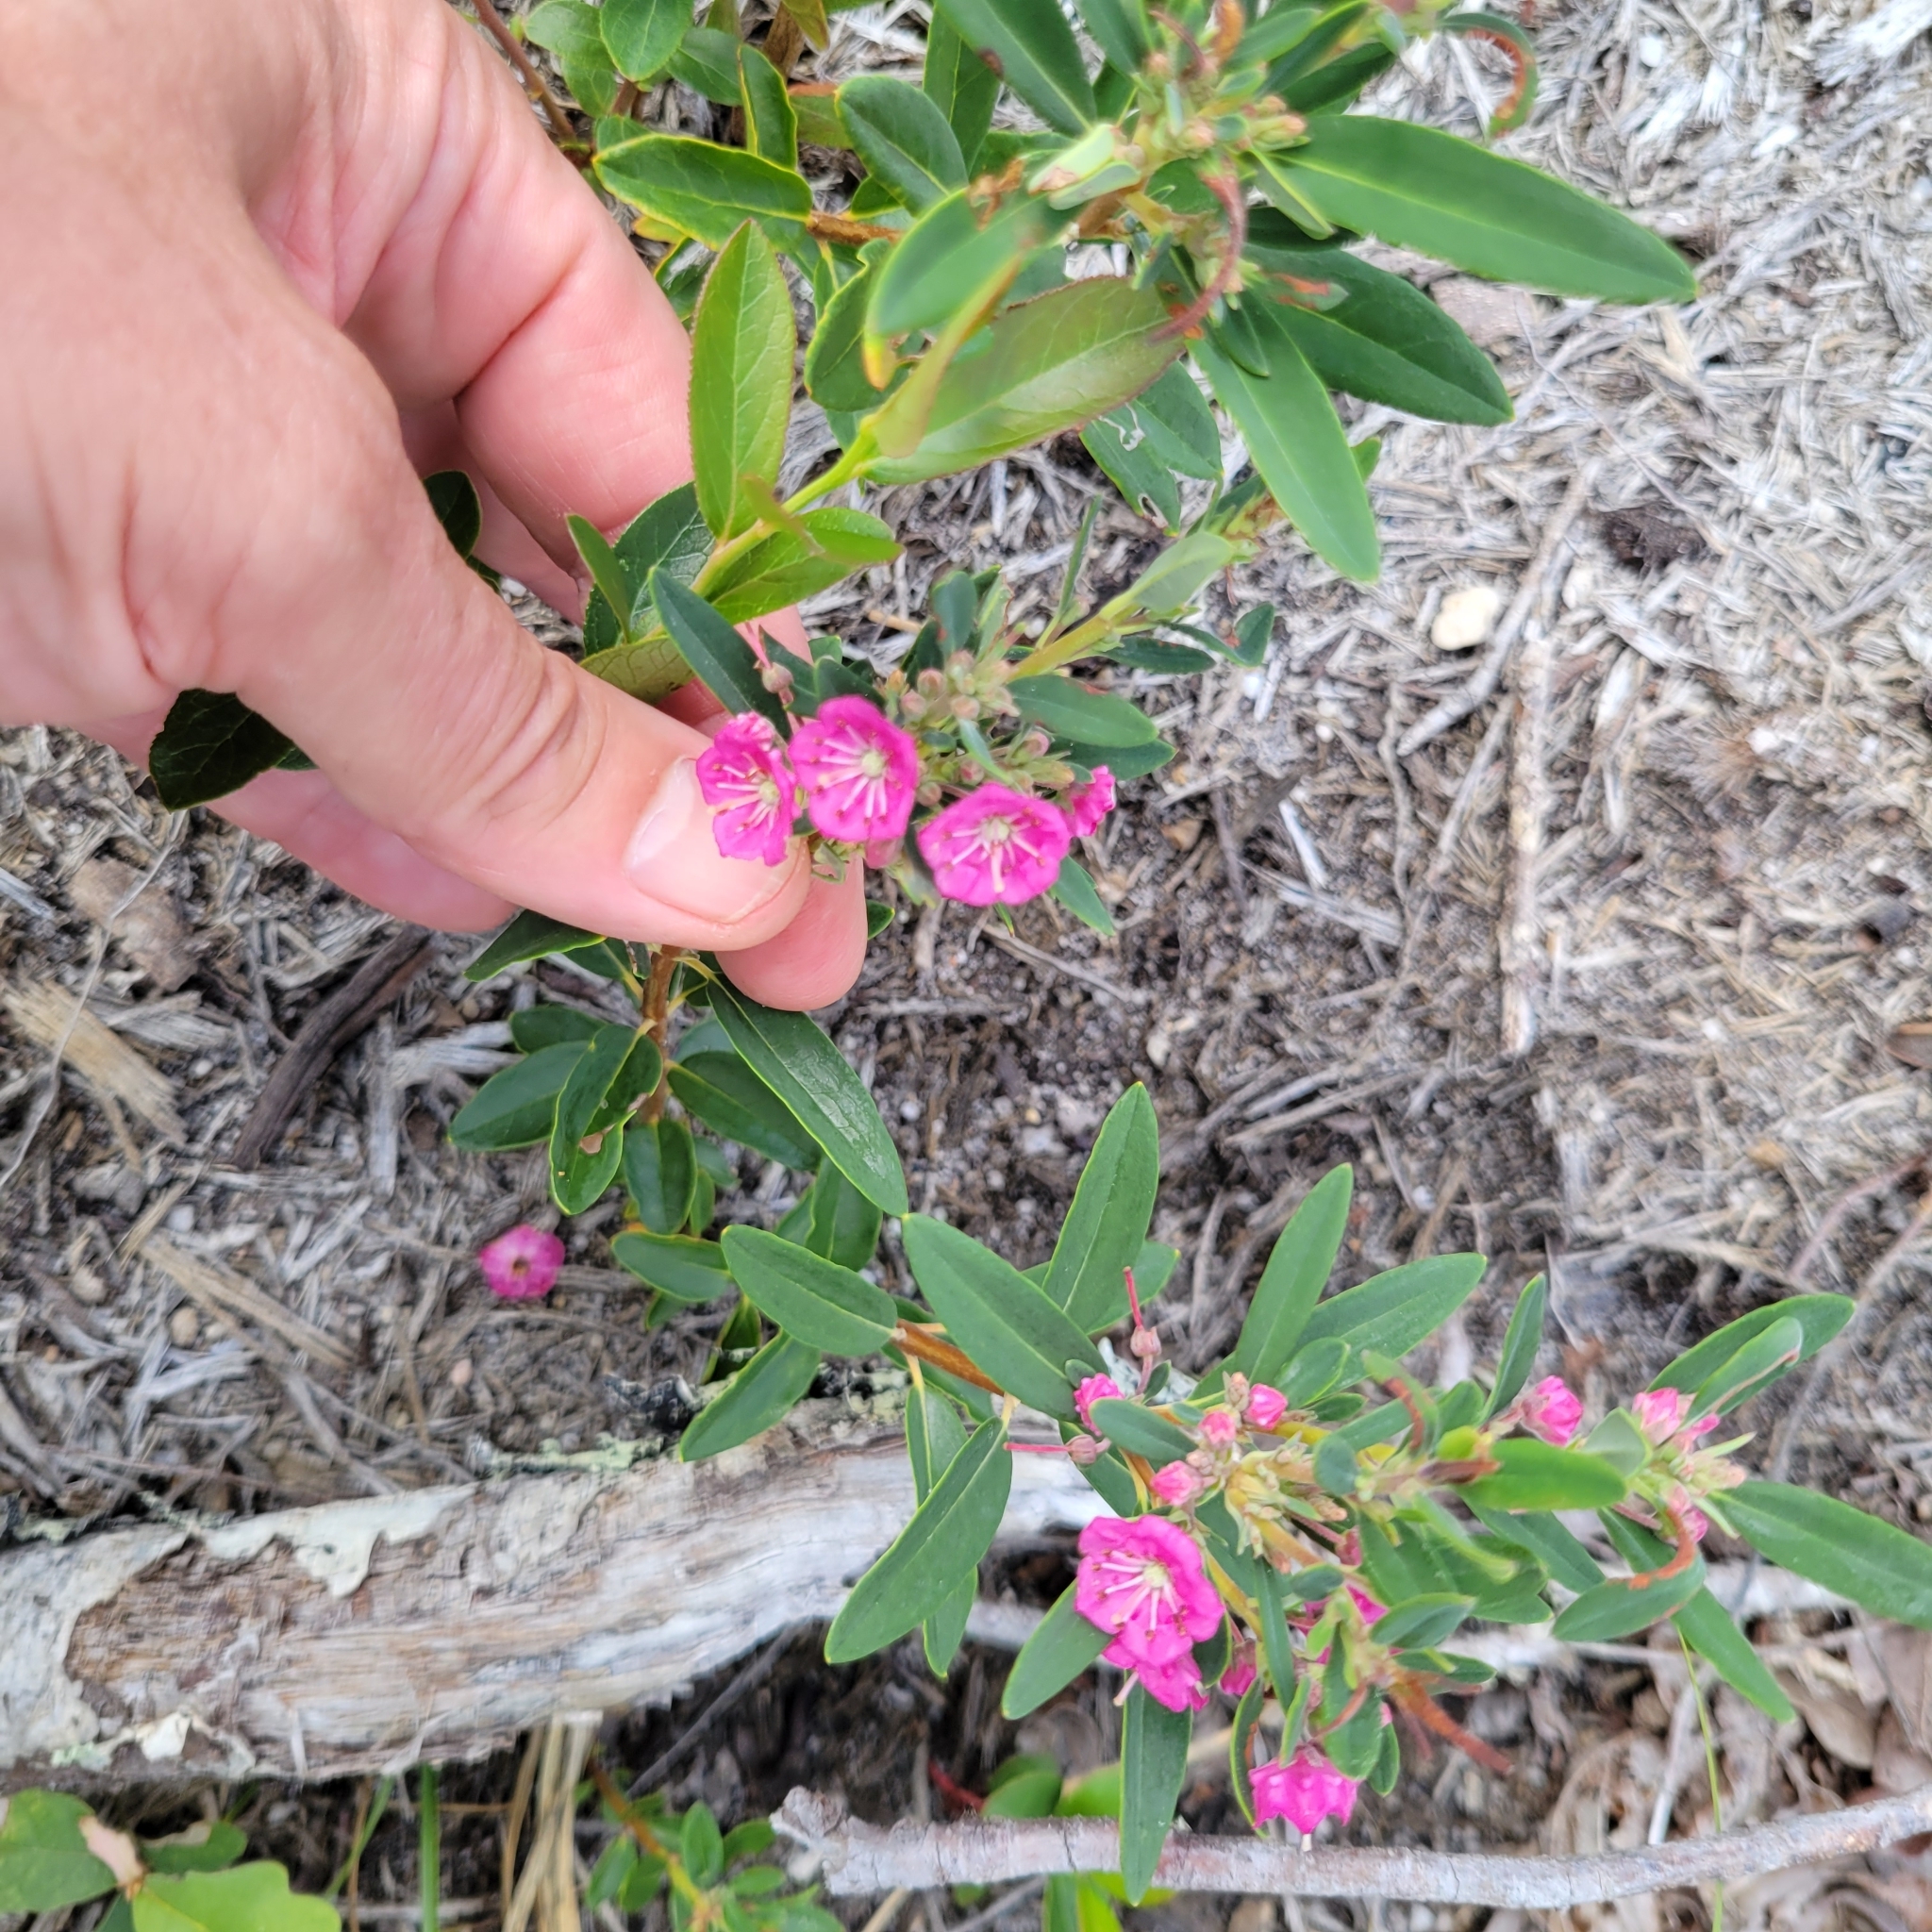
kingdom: Plantae
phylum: Tracheophyta
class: Magnoliopsida
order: Ericales
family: Ericaceae
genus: Kalmia
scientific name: Kalmia angustifolia
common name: Sheep-laurel
